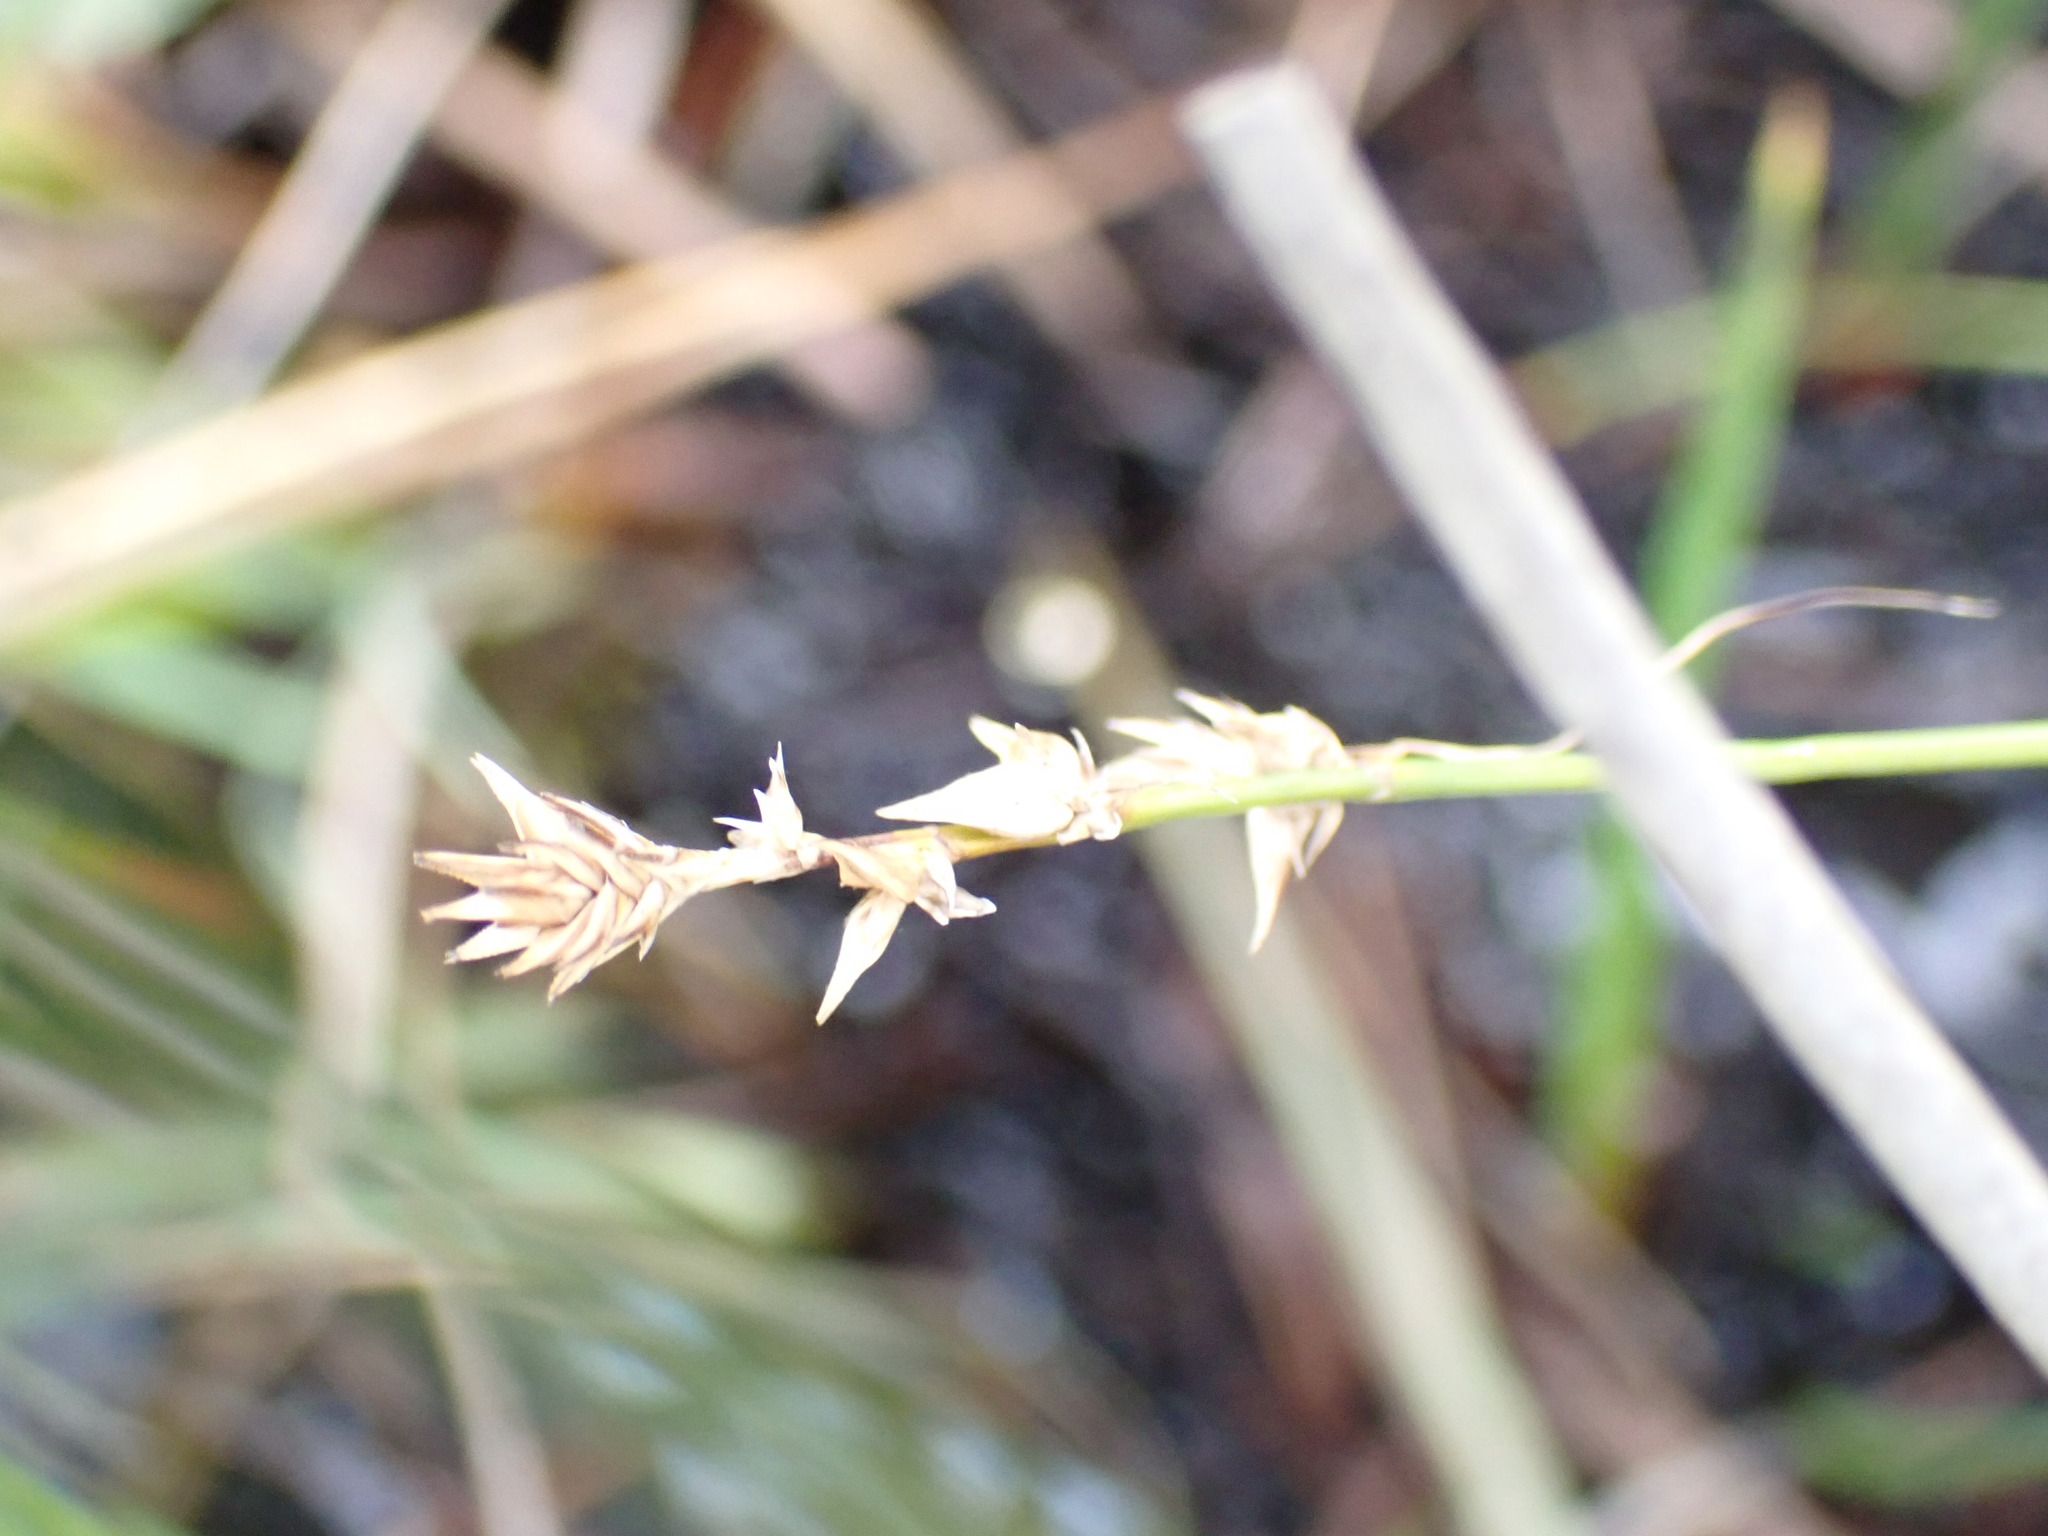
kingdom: Plantae
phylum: Tracheophyta
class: Liliopsida
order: Poales
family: Cyperaceae
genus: Carex
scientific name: Carex echinata
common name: Star sedge
